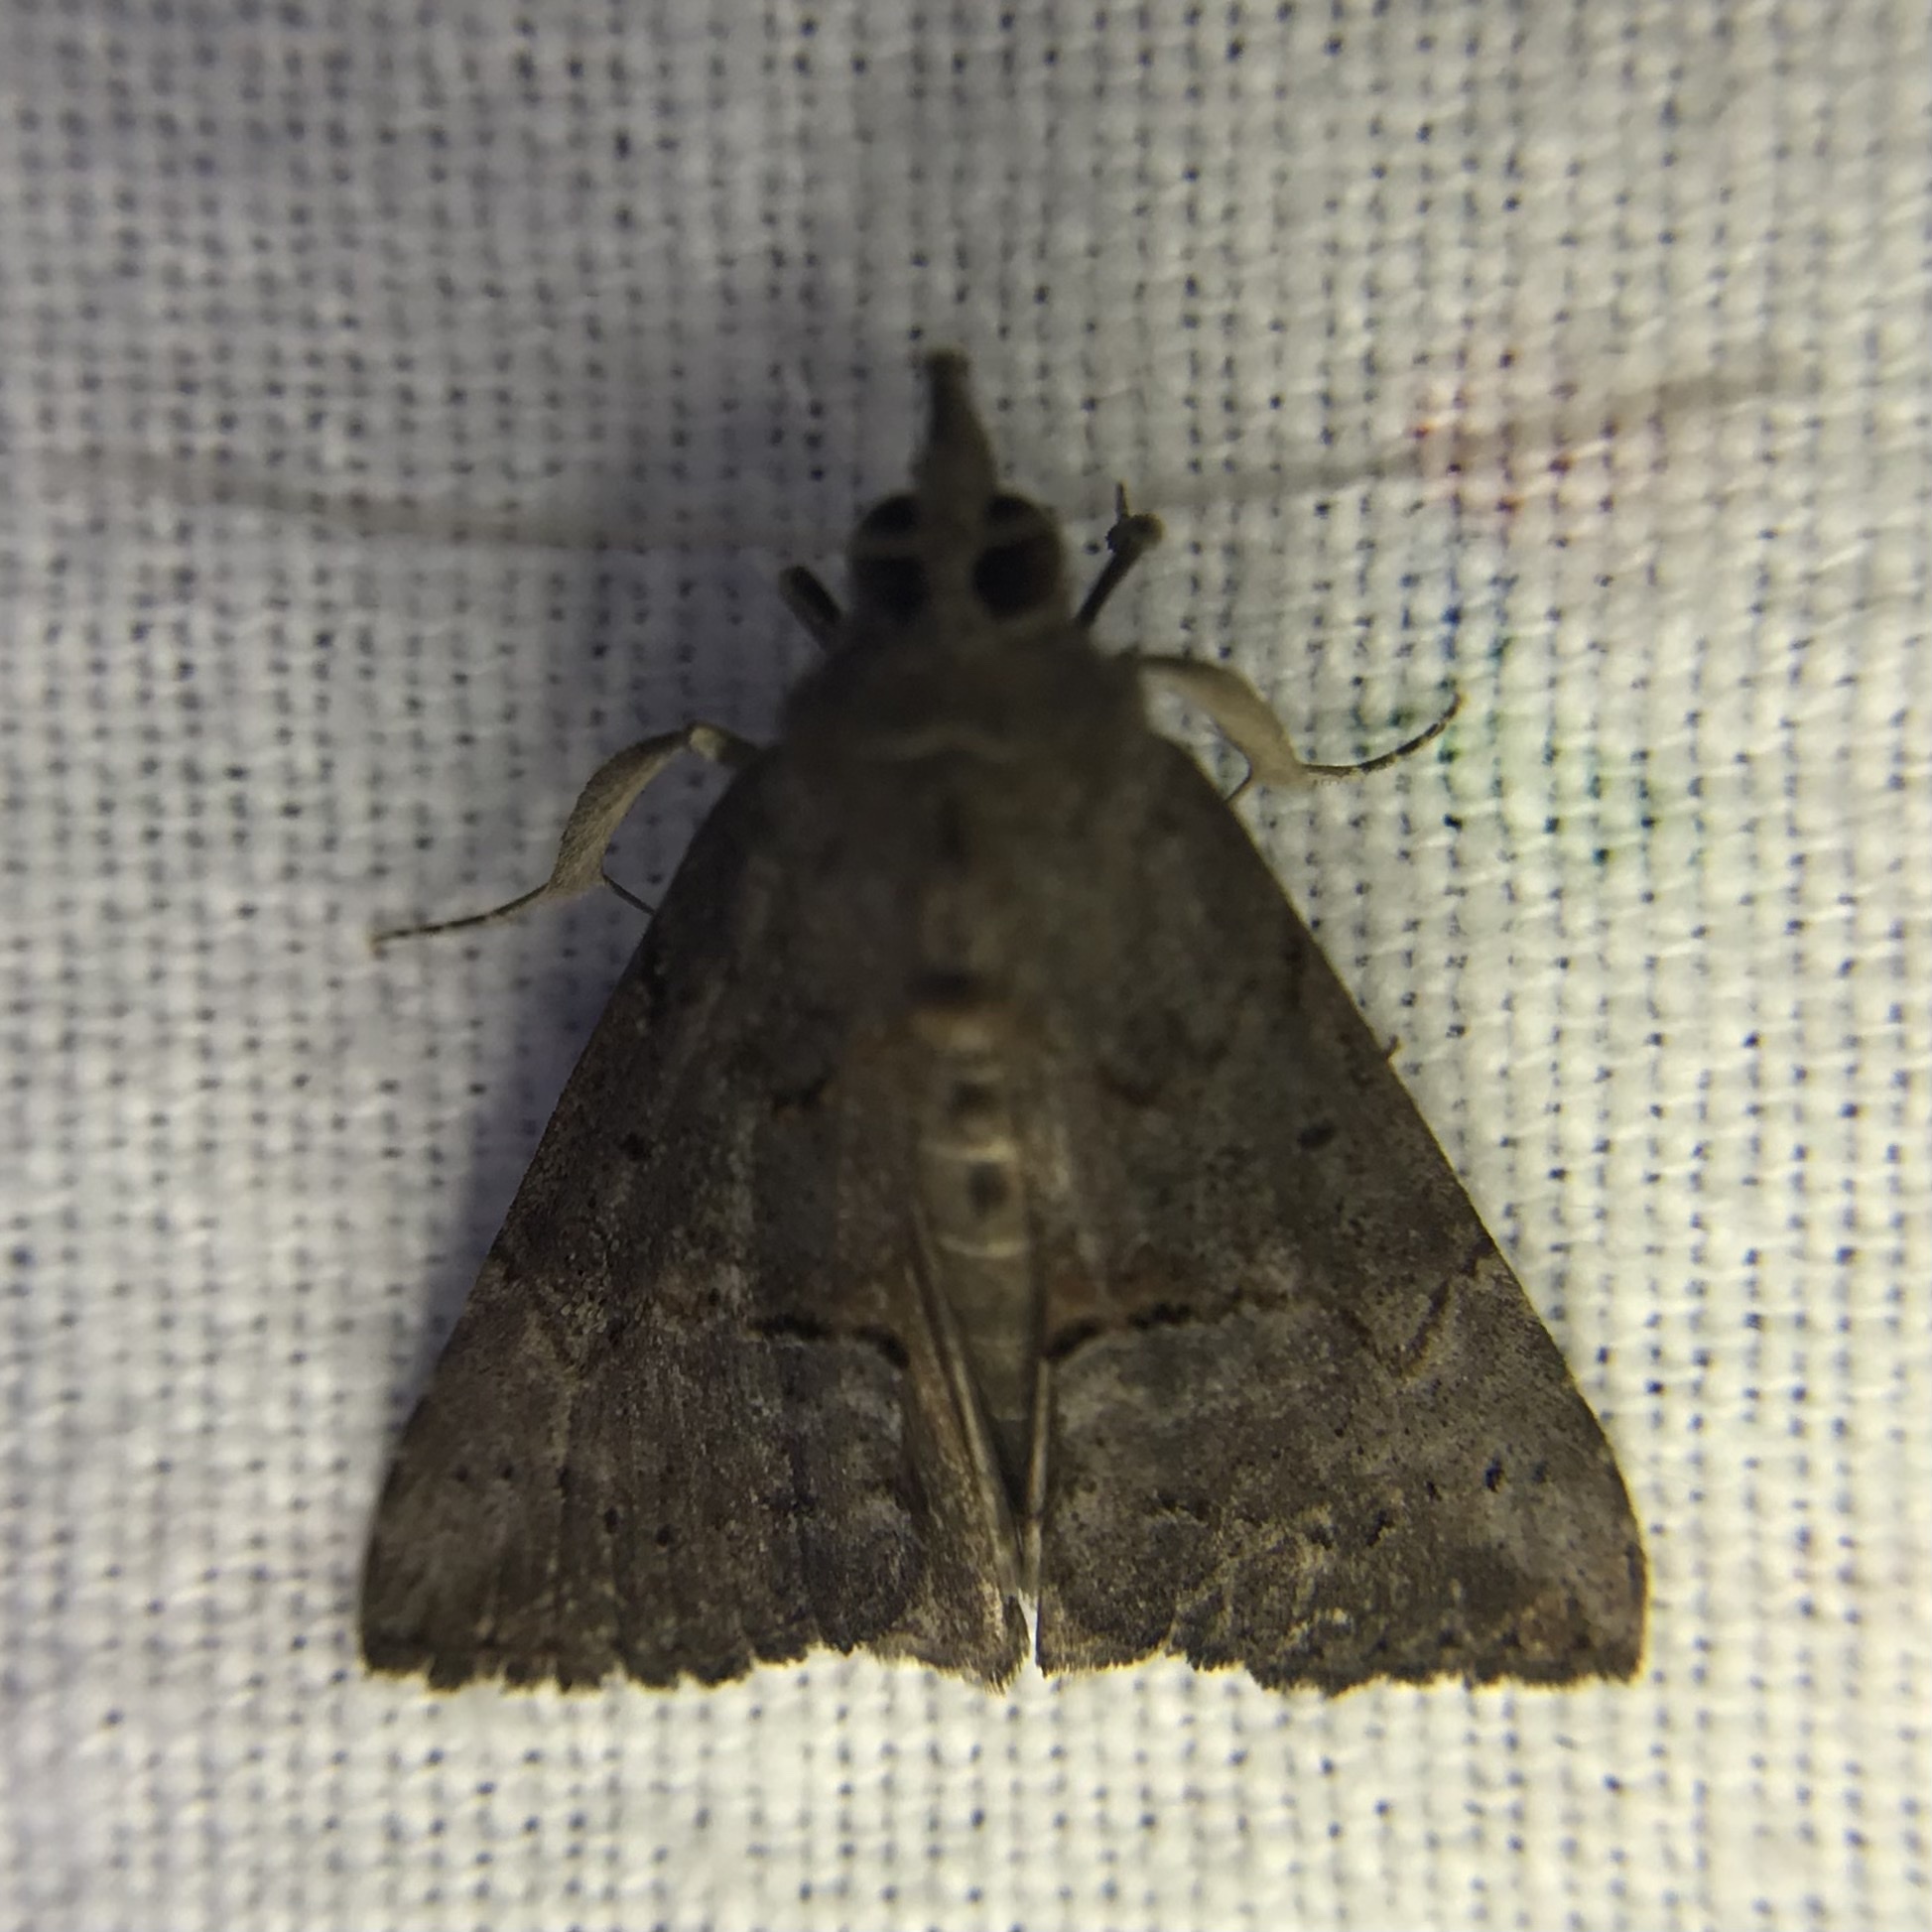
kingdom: Animalia
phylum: Arthropoda
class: Insecta
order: Lepidoptera
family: Erebidae
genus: Hypena
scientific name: Hypena scabra
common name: Green cloverworm
